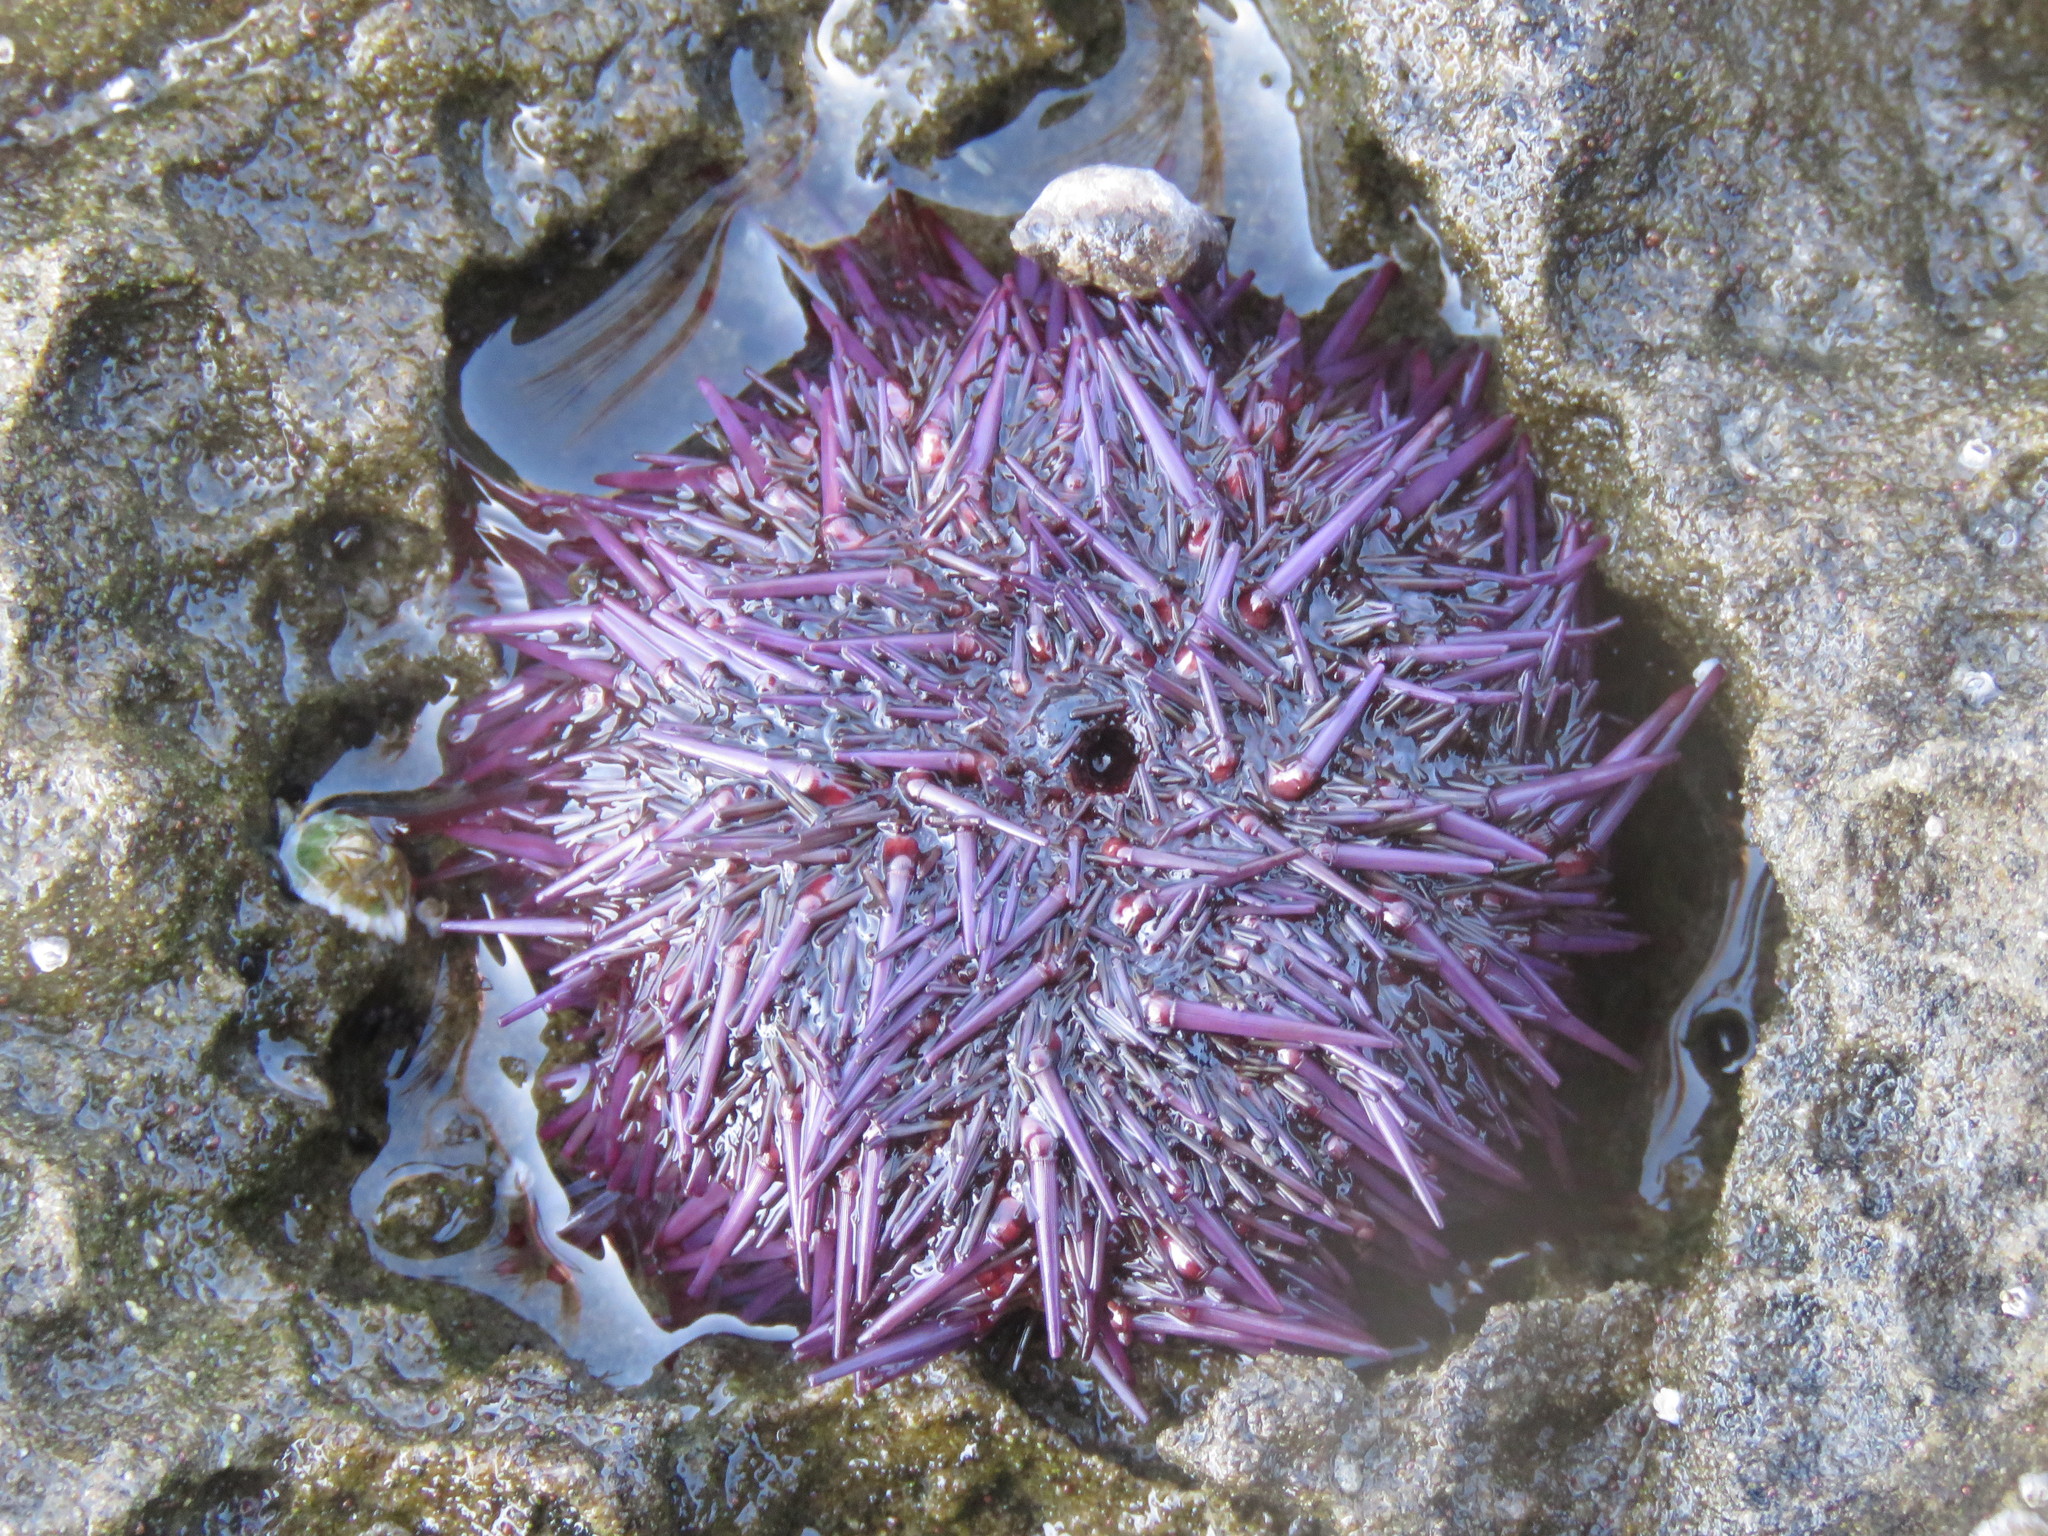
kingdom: Animalia
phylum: Echinodermata
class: Echinoidea
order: Camarodonta
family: Strongylocentrotidae
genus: Strongylocentrotus
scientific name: Strongylocentrotus purpuratus
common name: Purple sea urchin
